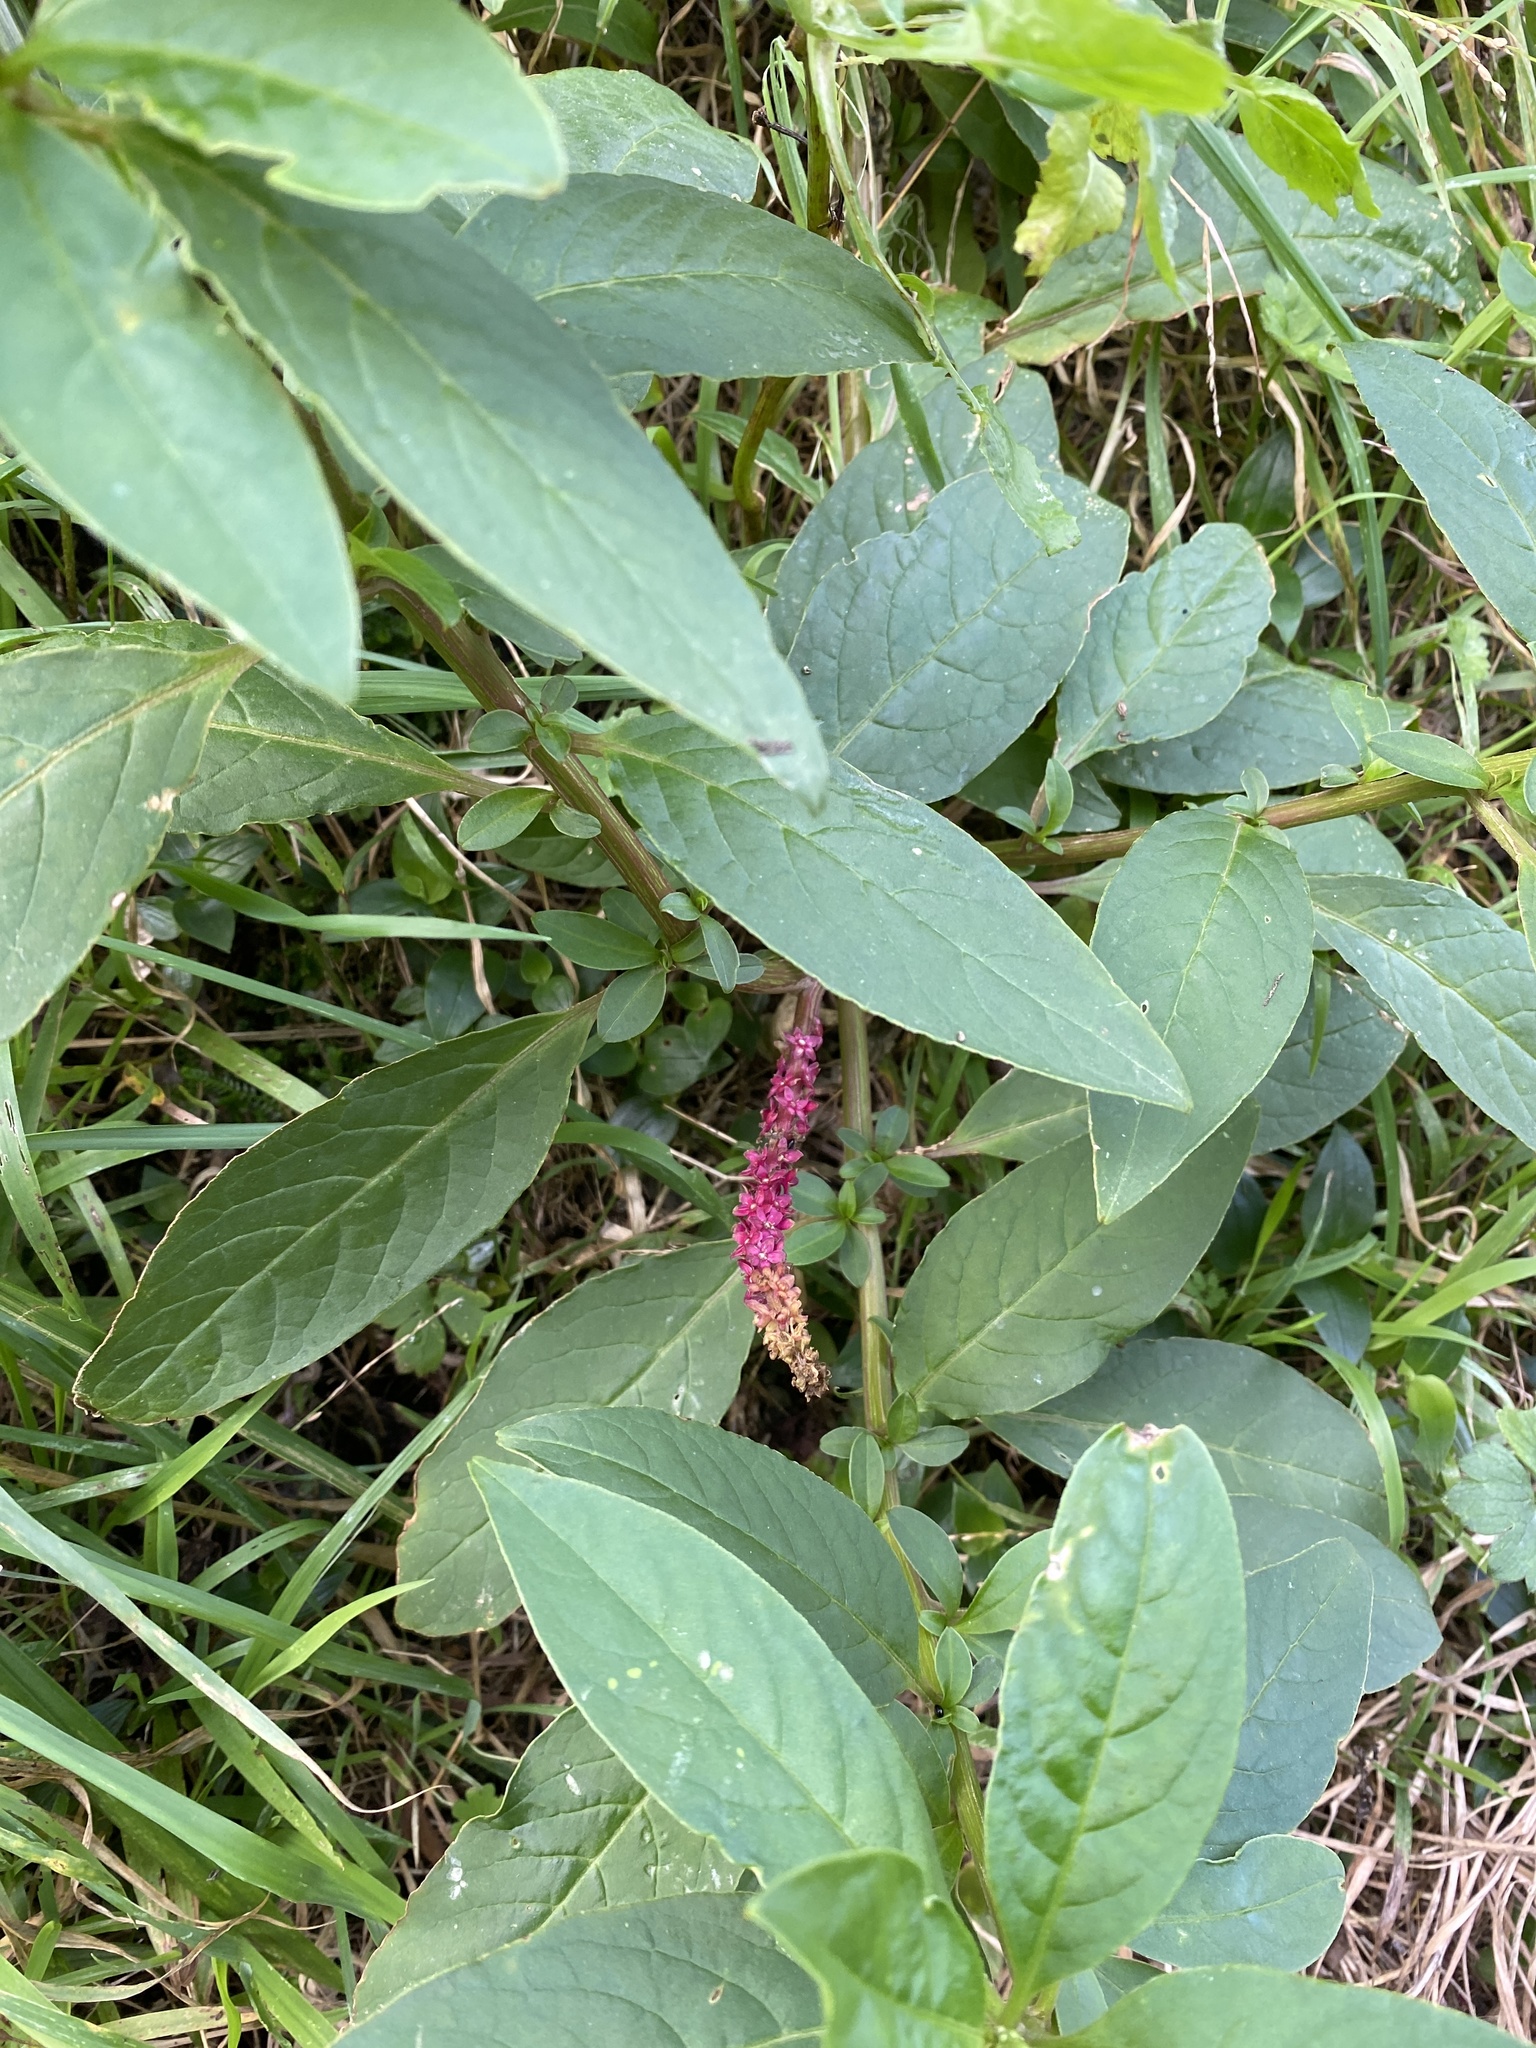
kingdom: Plantae
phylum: Tracheophyta
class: Magnoliopsida
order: Caryophyllales
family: Phytolaccaceae
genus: Phytolacca
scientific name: Phytolacca icosandra
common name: Button pokeweed
